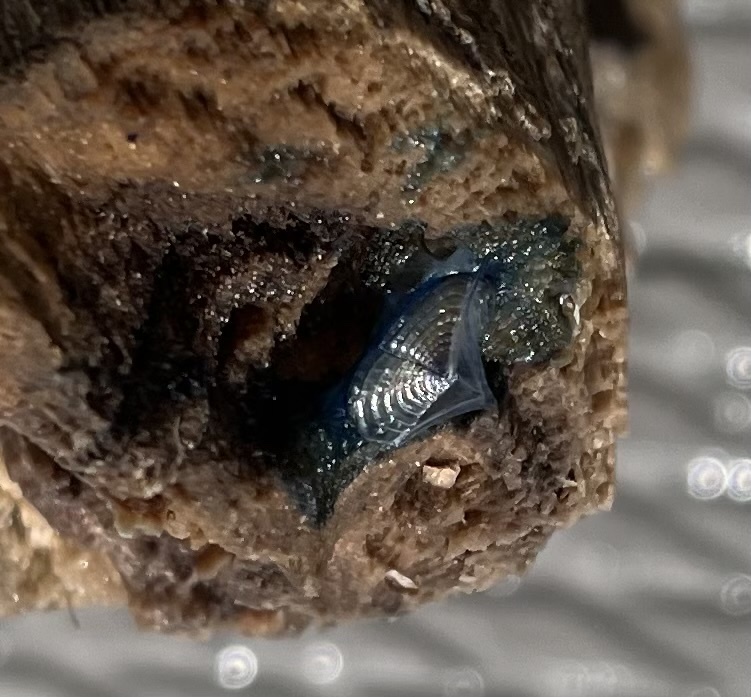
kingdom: Animalia
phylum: Cnidaria
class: Hydrozoa
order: Anthoathecata
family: Porpitidae
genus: Velella
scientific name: Velella velella
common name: By-the-wind-sailor
